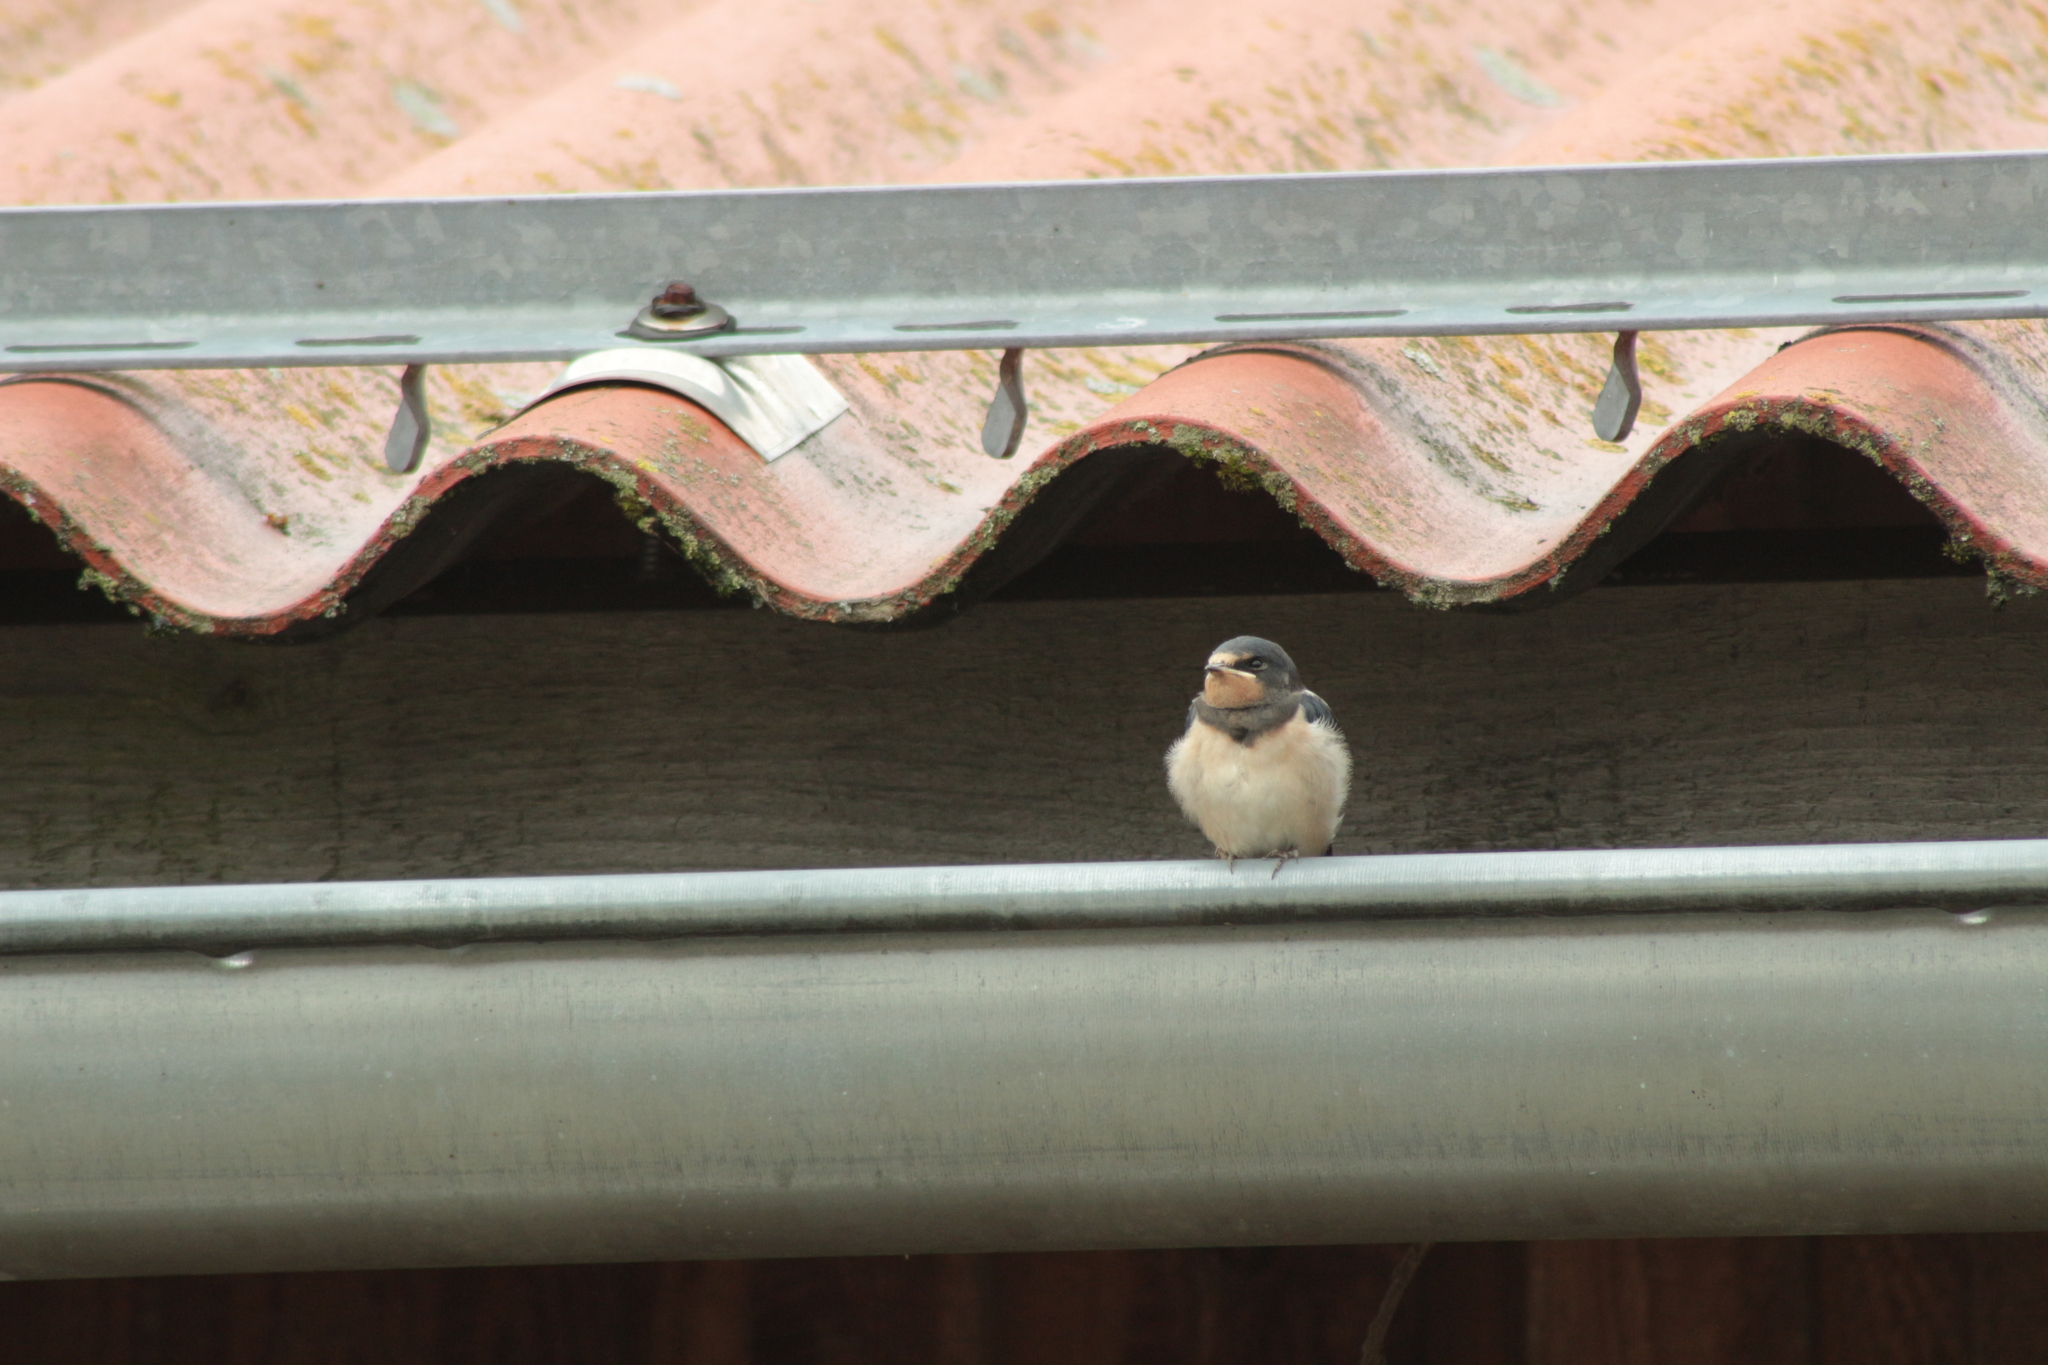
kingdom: Animalia
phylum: Chordata
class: Aves
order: Passeriformes
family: Hirundinidae
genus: Hirundo
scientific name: Hirundo rustica
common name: Barn swallow
